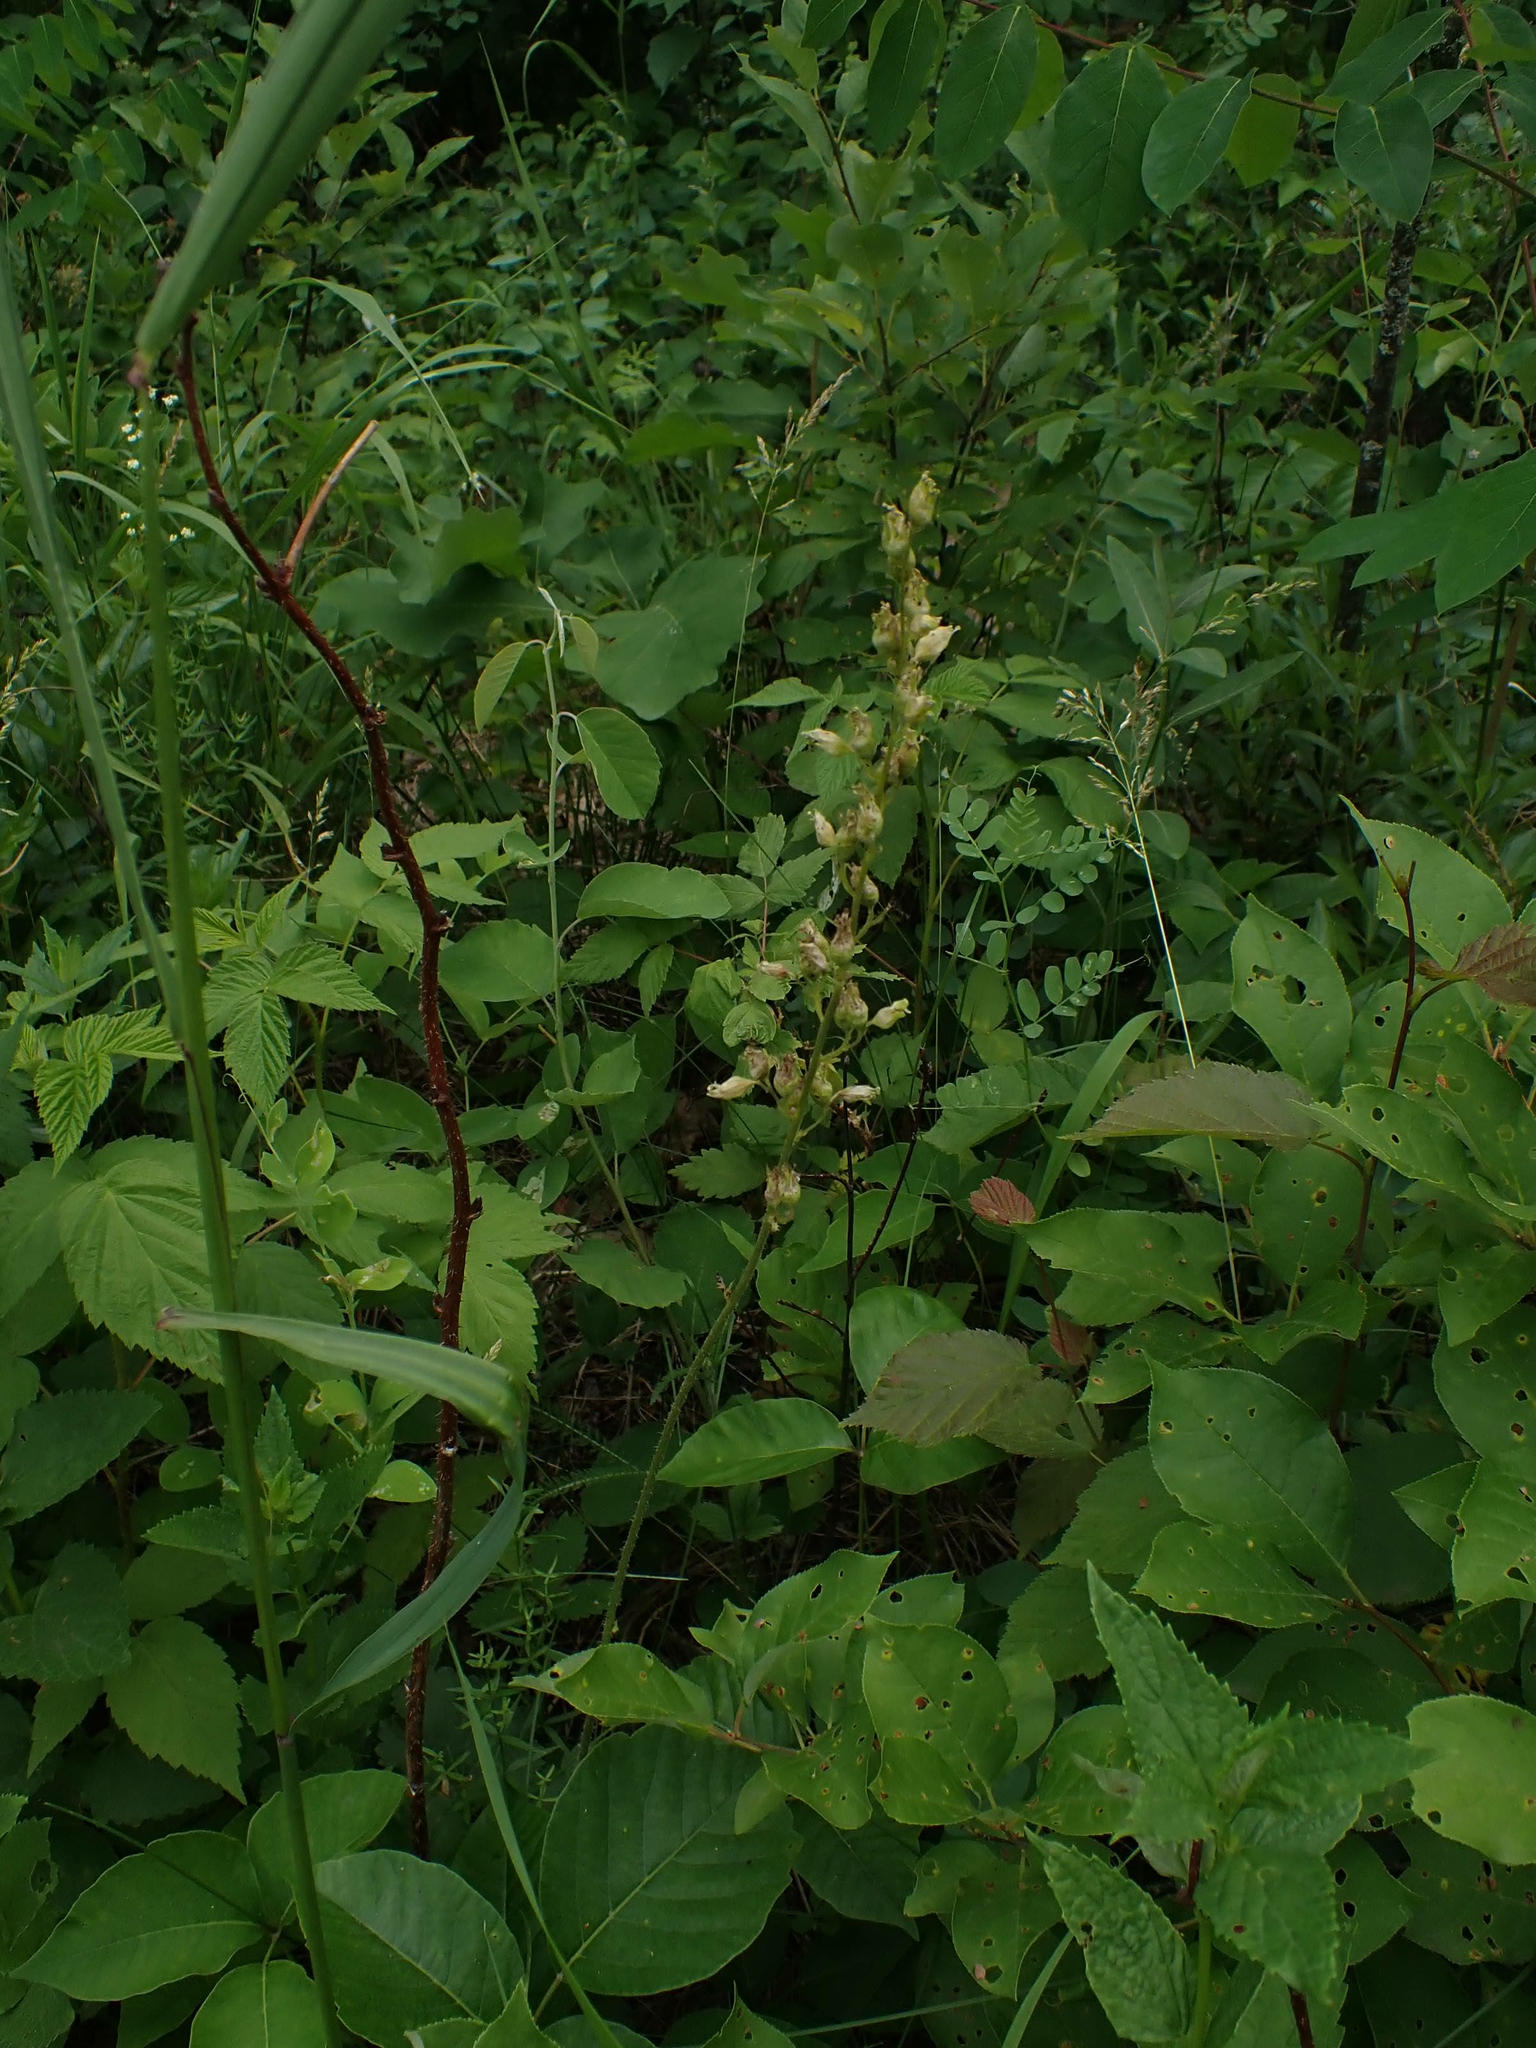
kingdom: Plantae
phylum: Tracheophyta
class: Magnoliopsida
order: Saxifragales
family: Saxifragaceae
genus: Heuchera
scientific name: Heuchera richardsonii
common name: Richardson's alumroot
